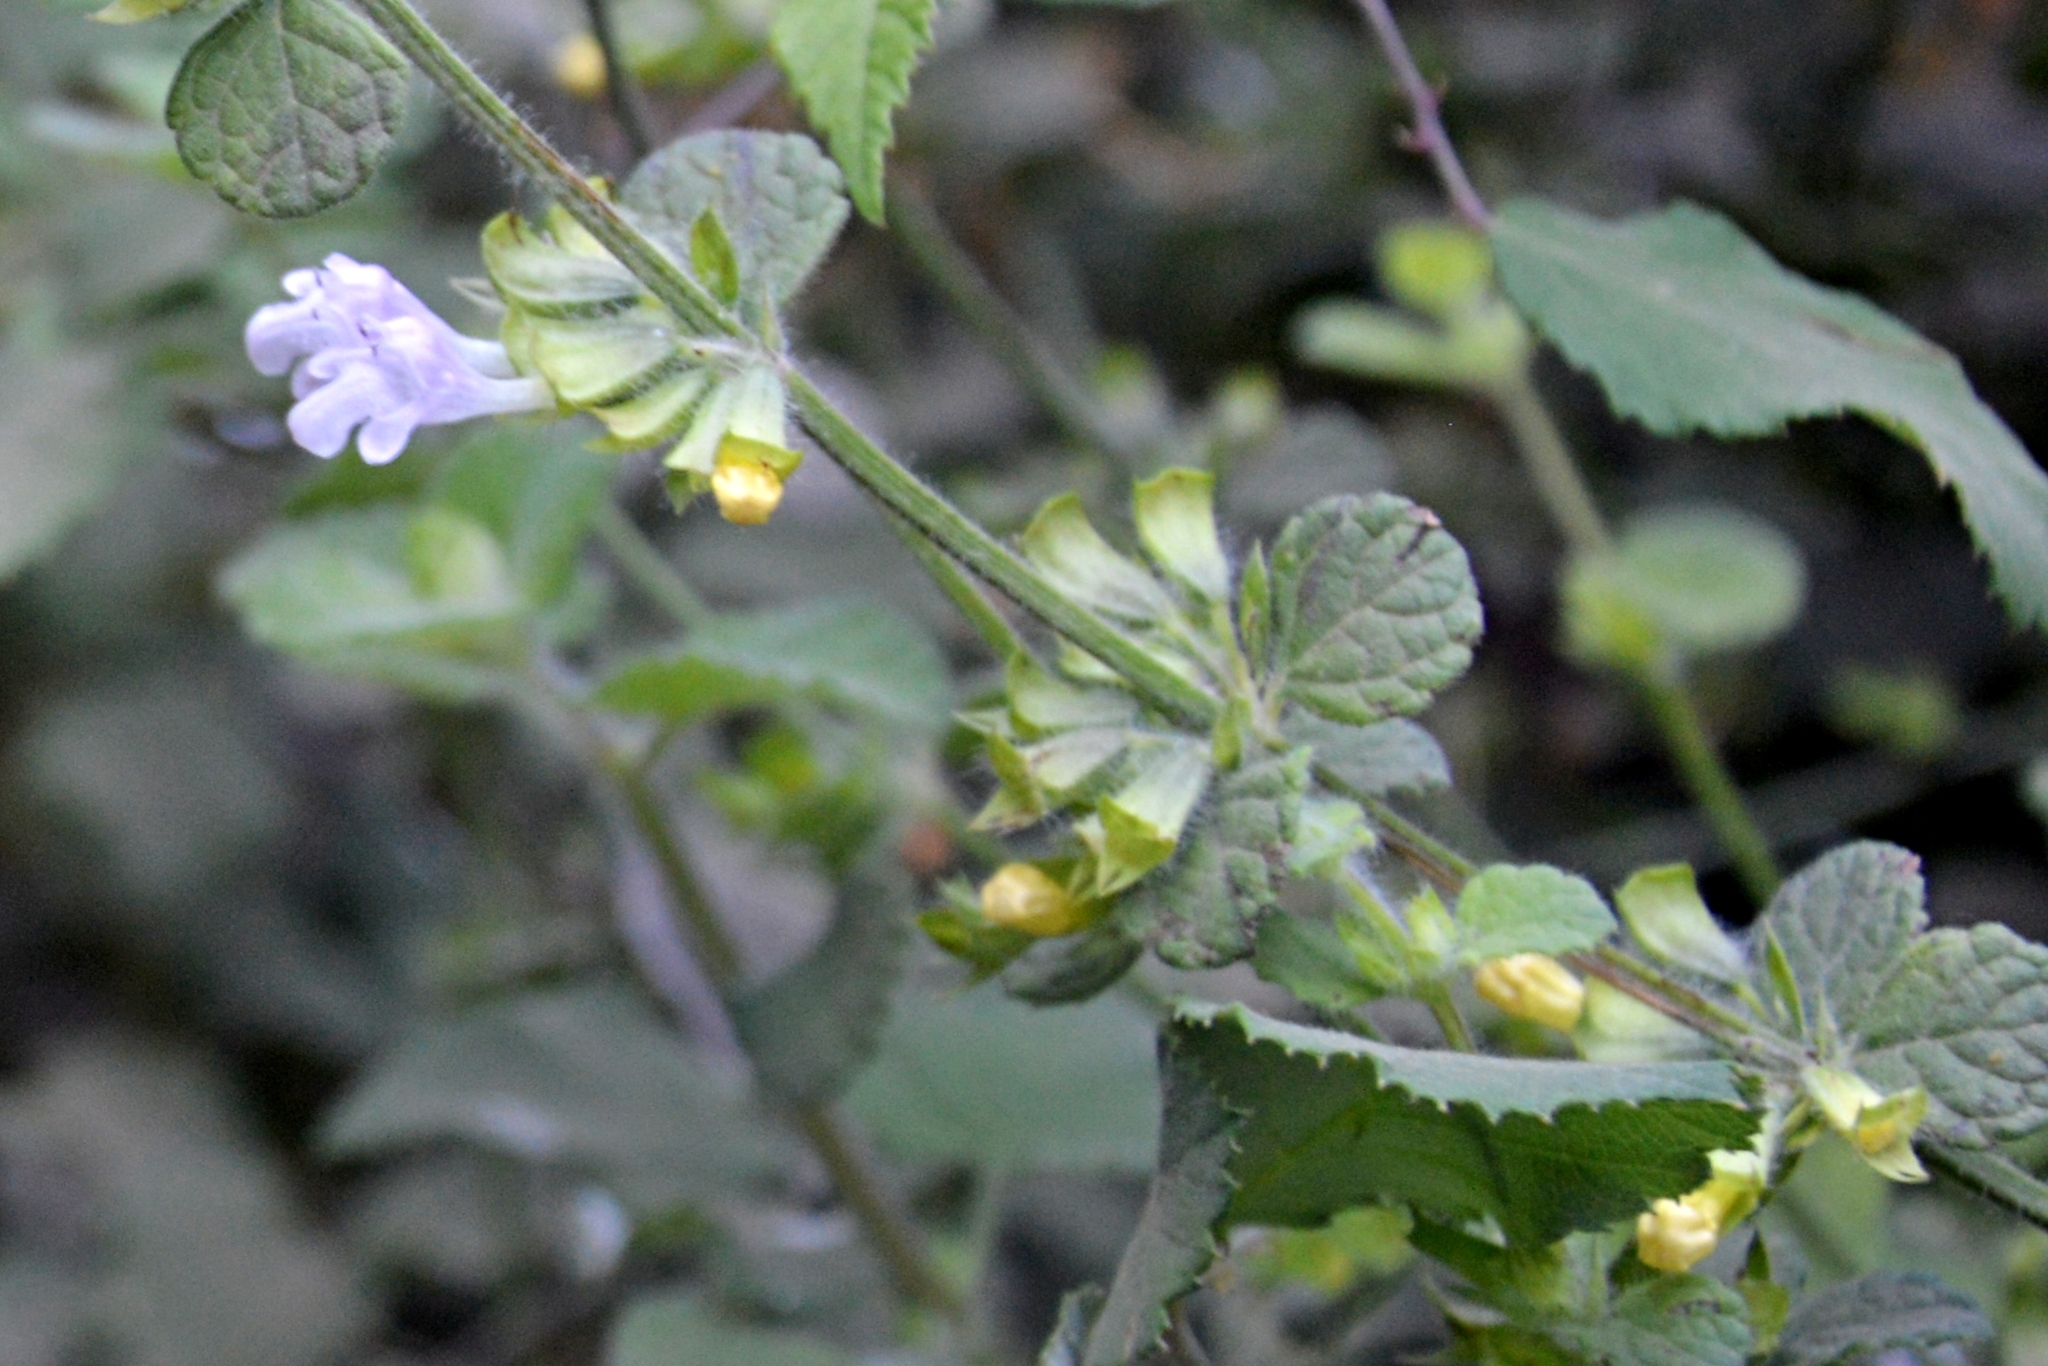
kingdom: Plantae
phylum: Tracheophyta
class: Magnoliopsida
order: Lamiales
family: Lamiaceae
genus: Clinopodium
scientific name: Clinopodium nepeta
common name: Lesser calamint
